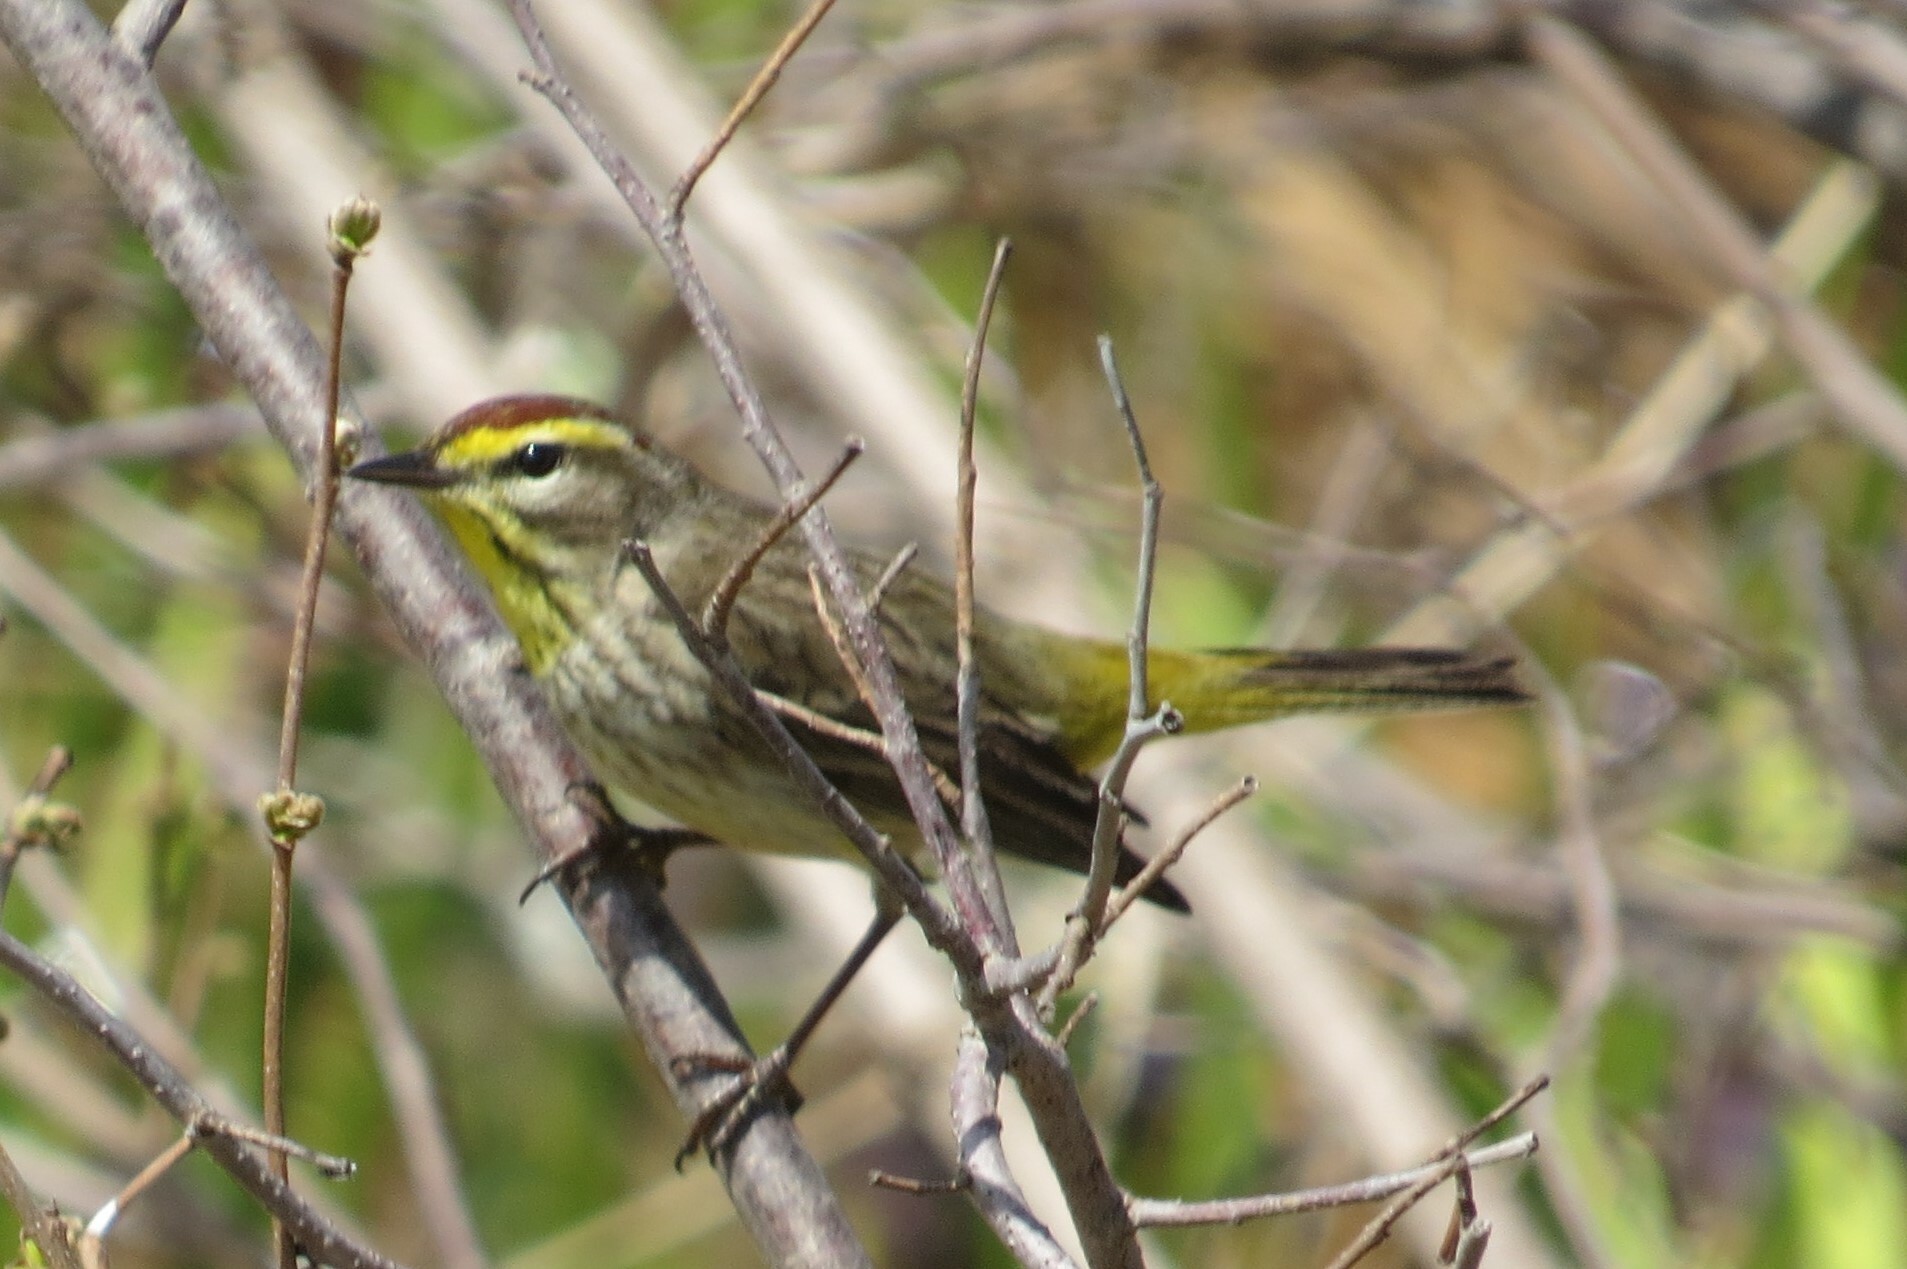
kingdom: Animalia
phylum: Chordata
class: Aves
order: Passeriformes
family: Parulidae
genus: Setophaga
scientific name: Setophaga palmarum
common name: Palm warbler
